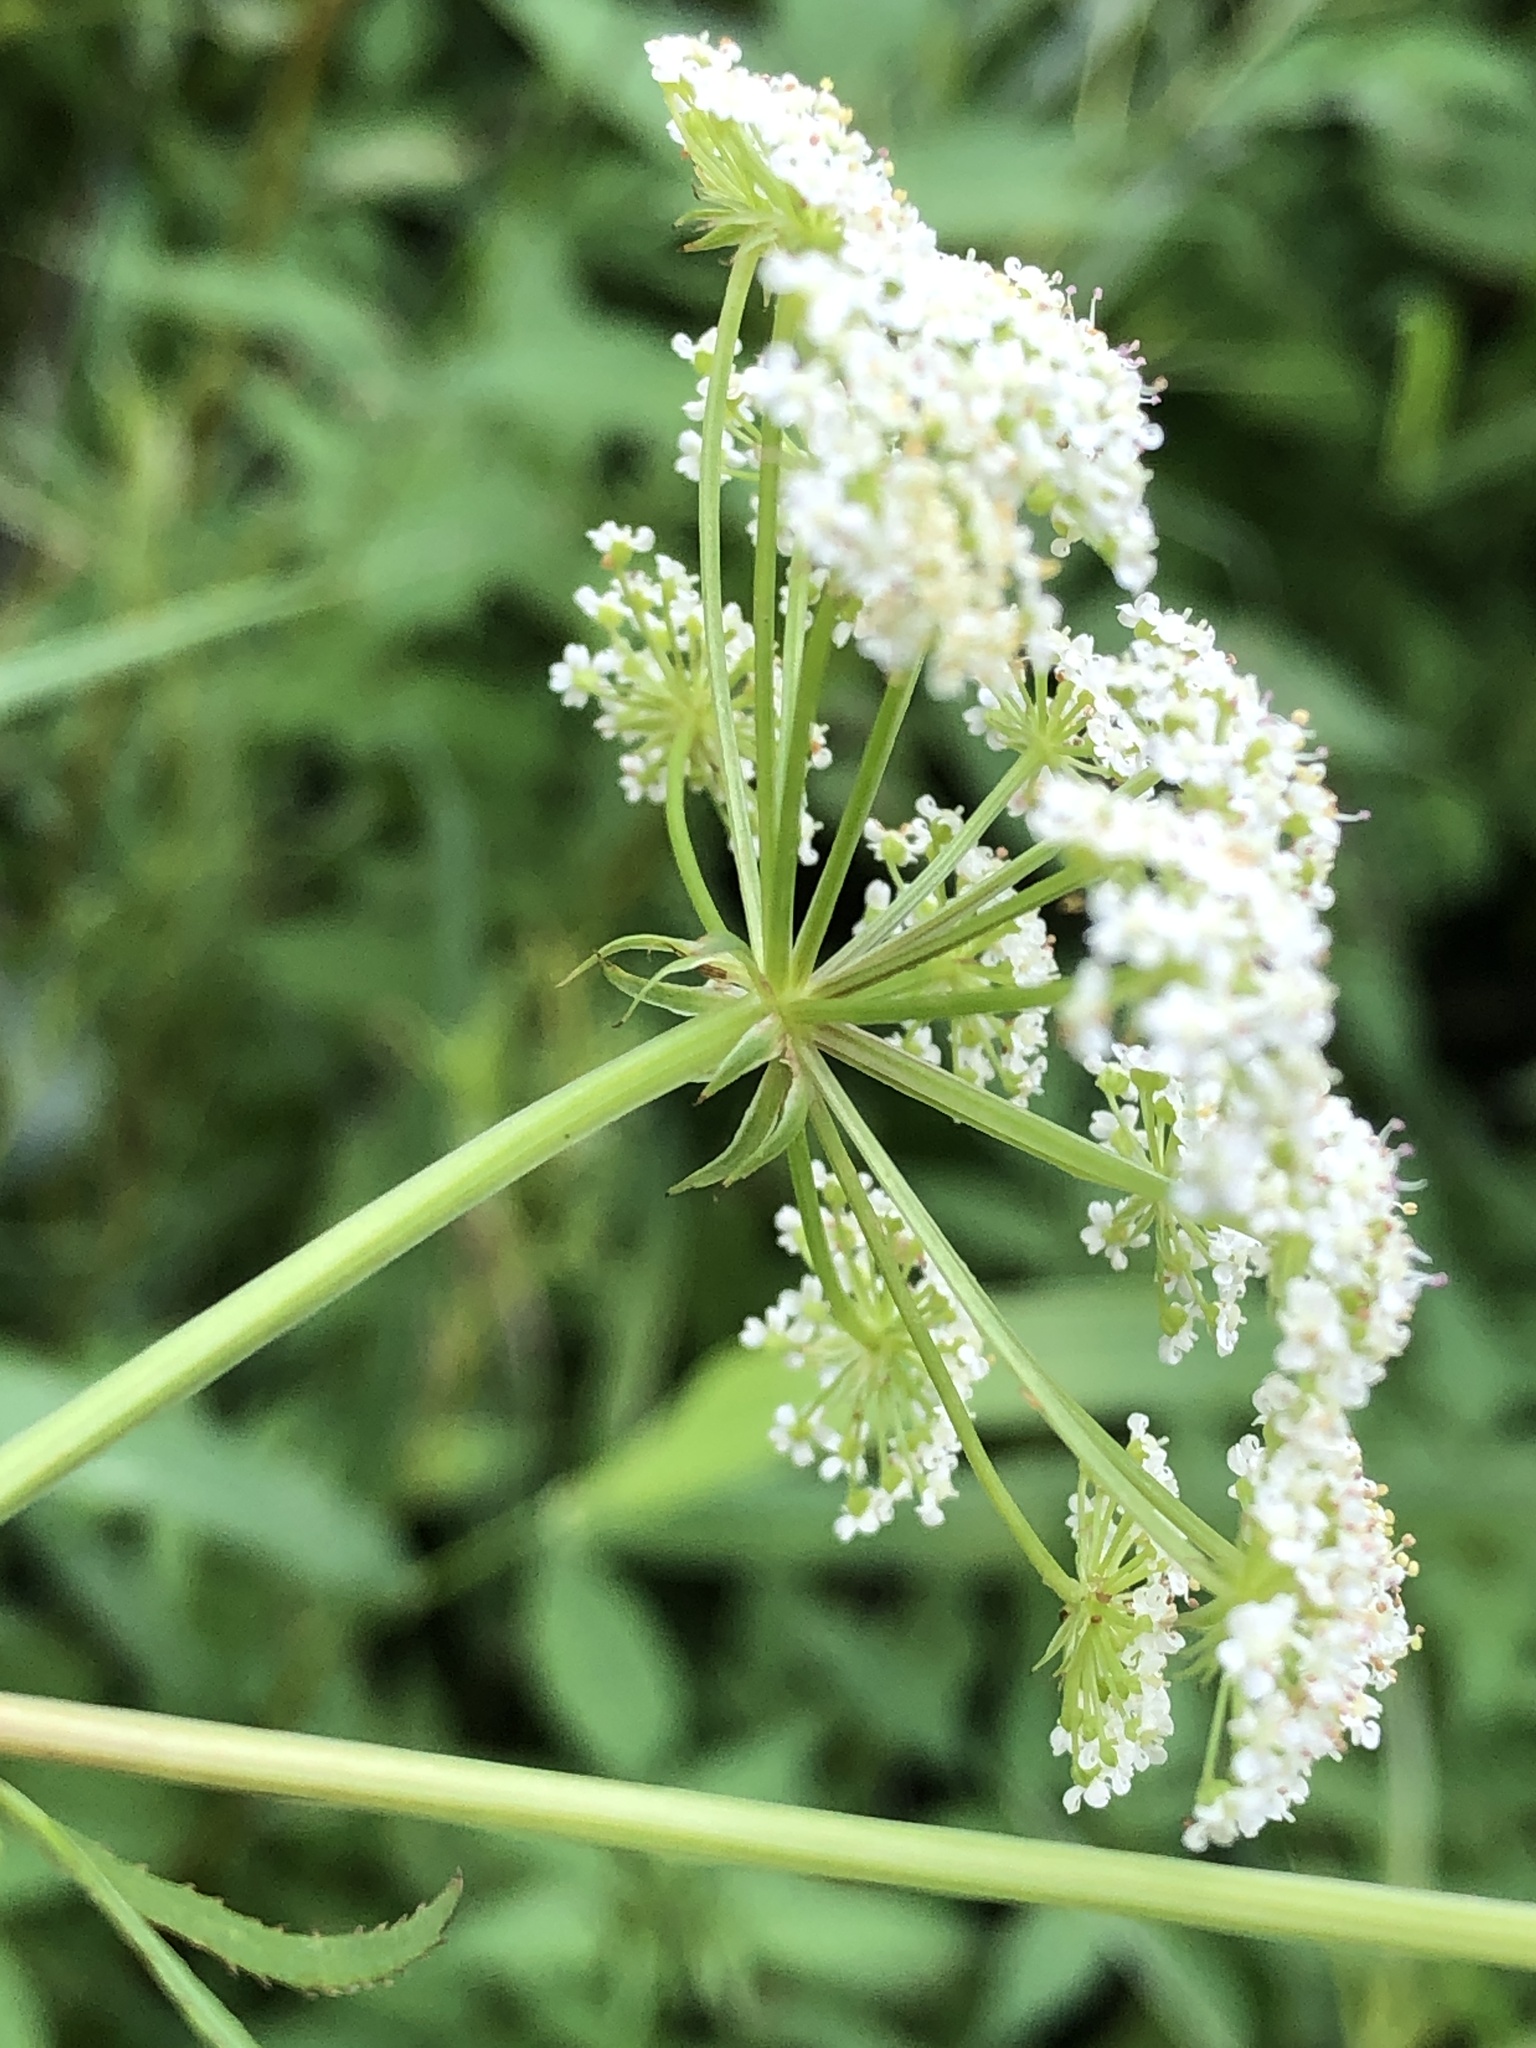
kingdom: Plantae
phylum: Tracheophyta
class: Magnoliopsida
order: Apiales
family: Apiaceae
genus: Sium
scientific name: Sium suave
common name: Hemlock water-parsnip
